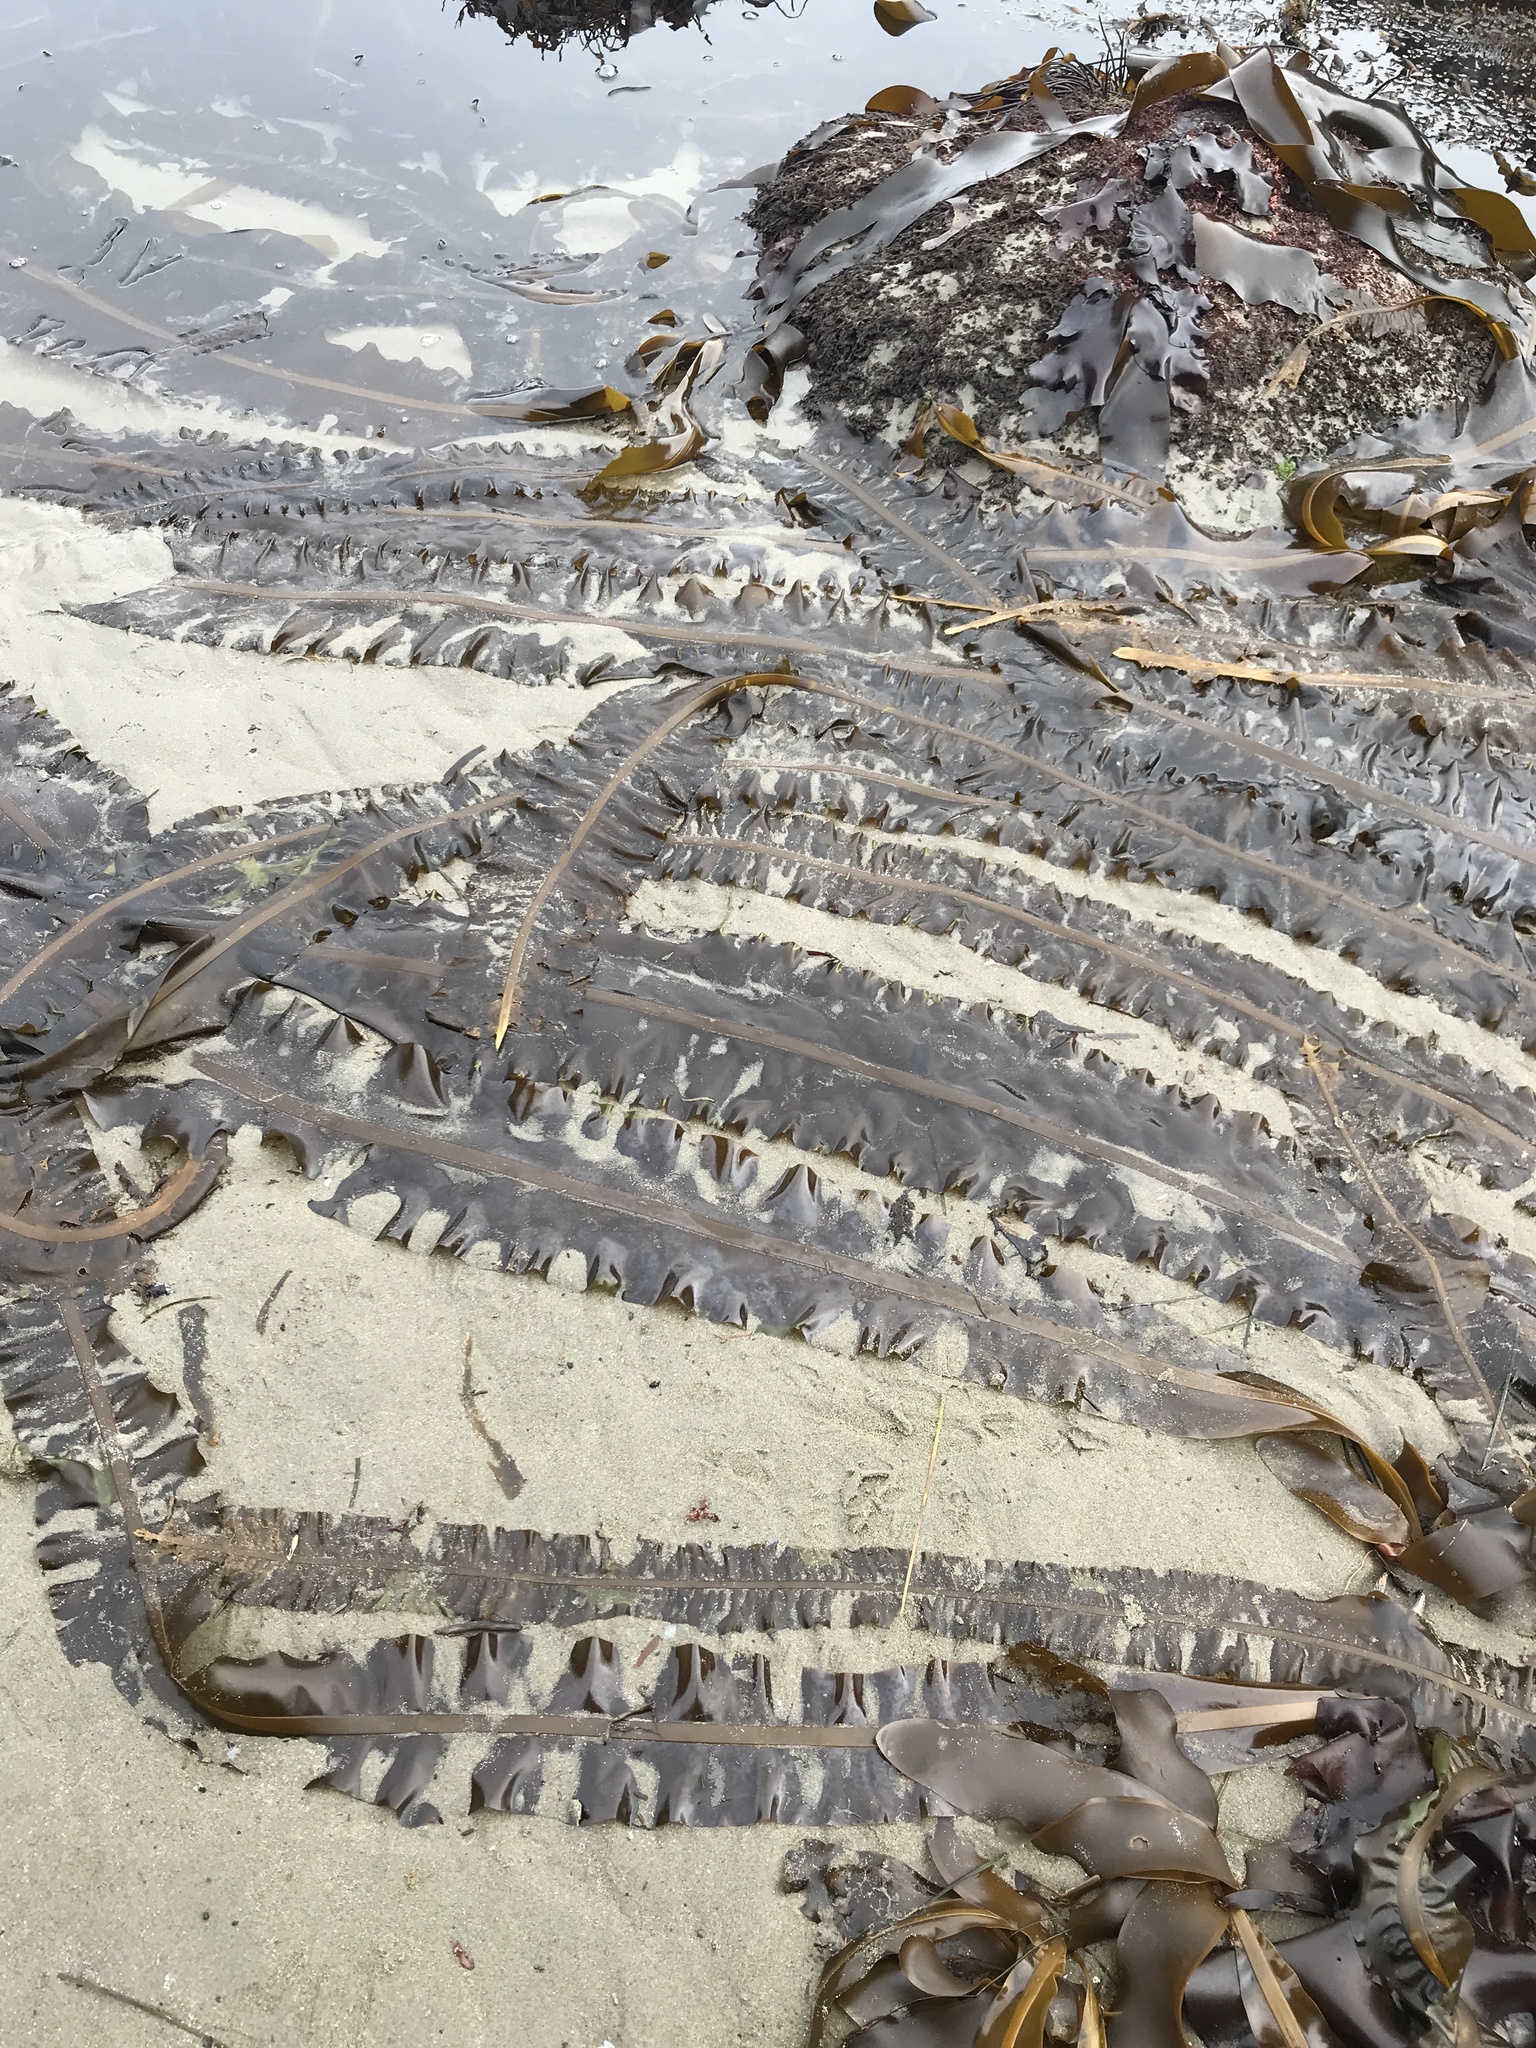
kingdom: Chromista
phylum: Ochrophyta
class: Phaeophyceae
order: Laminariales
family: Alariaceae
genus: Alaria
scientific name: Alaria marginata
